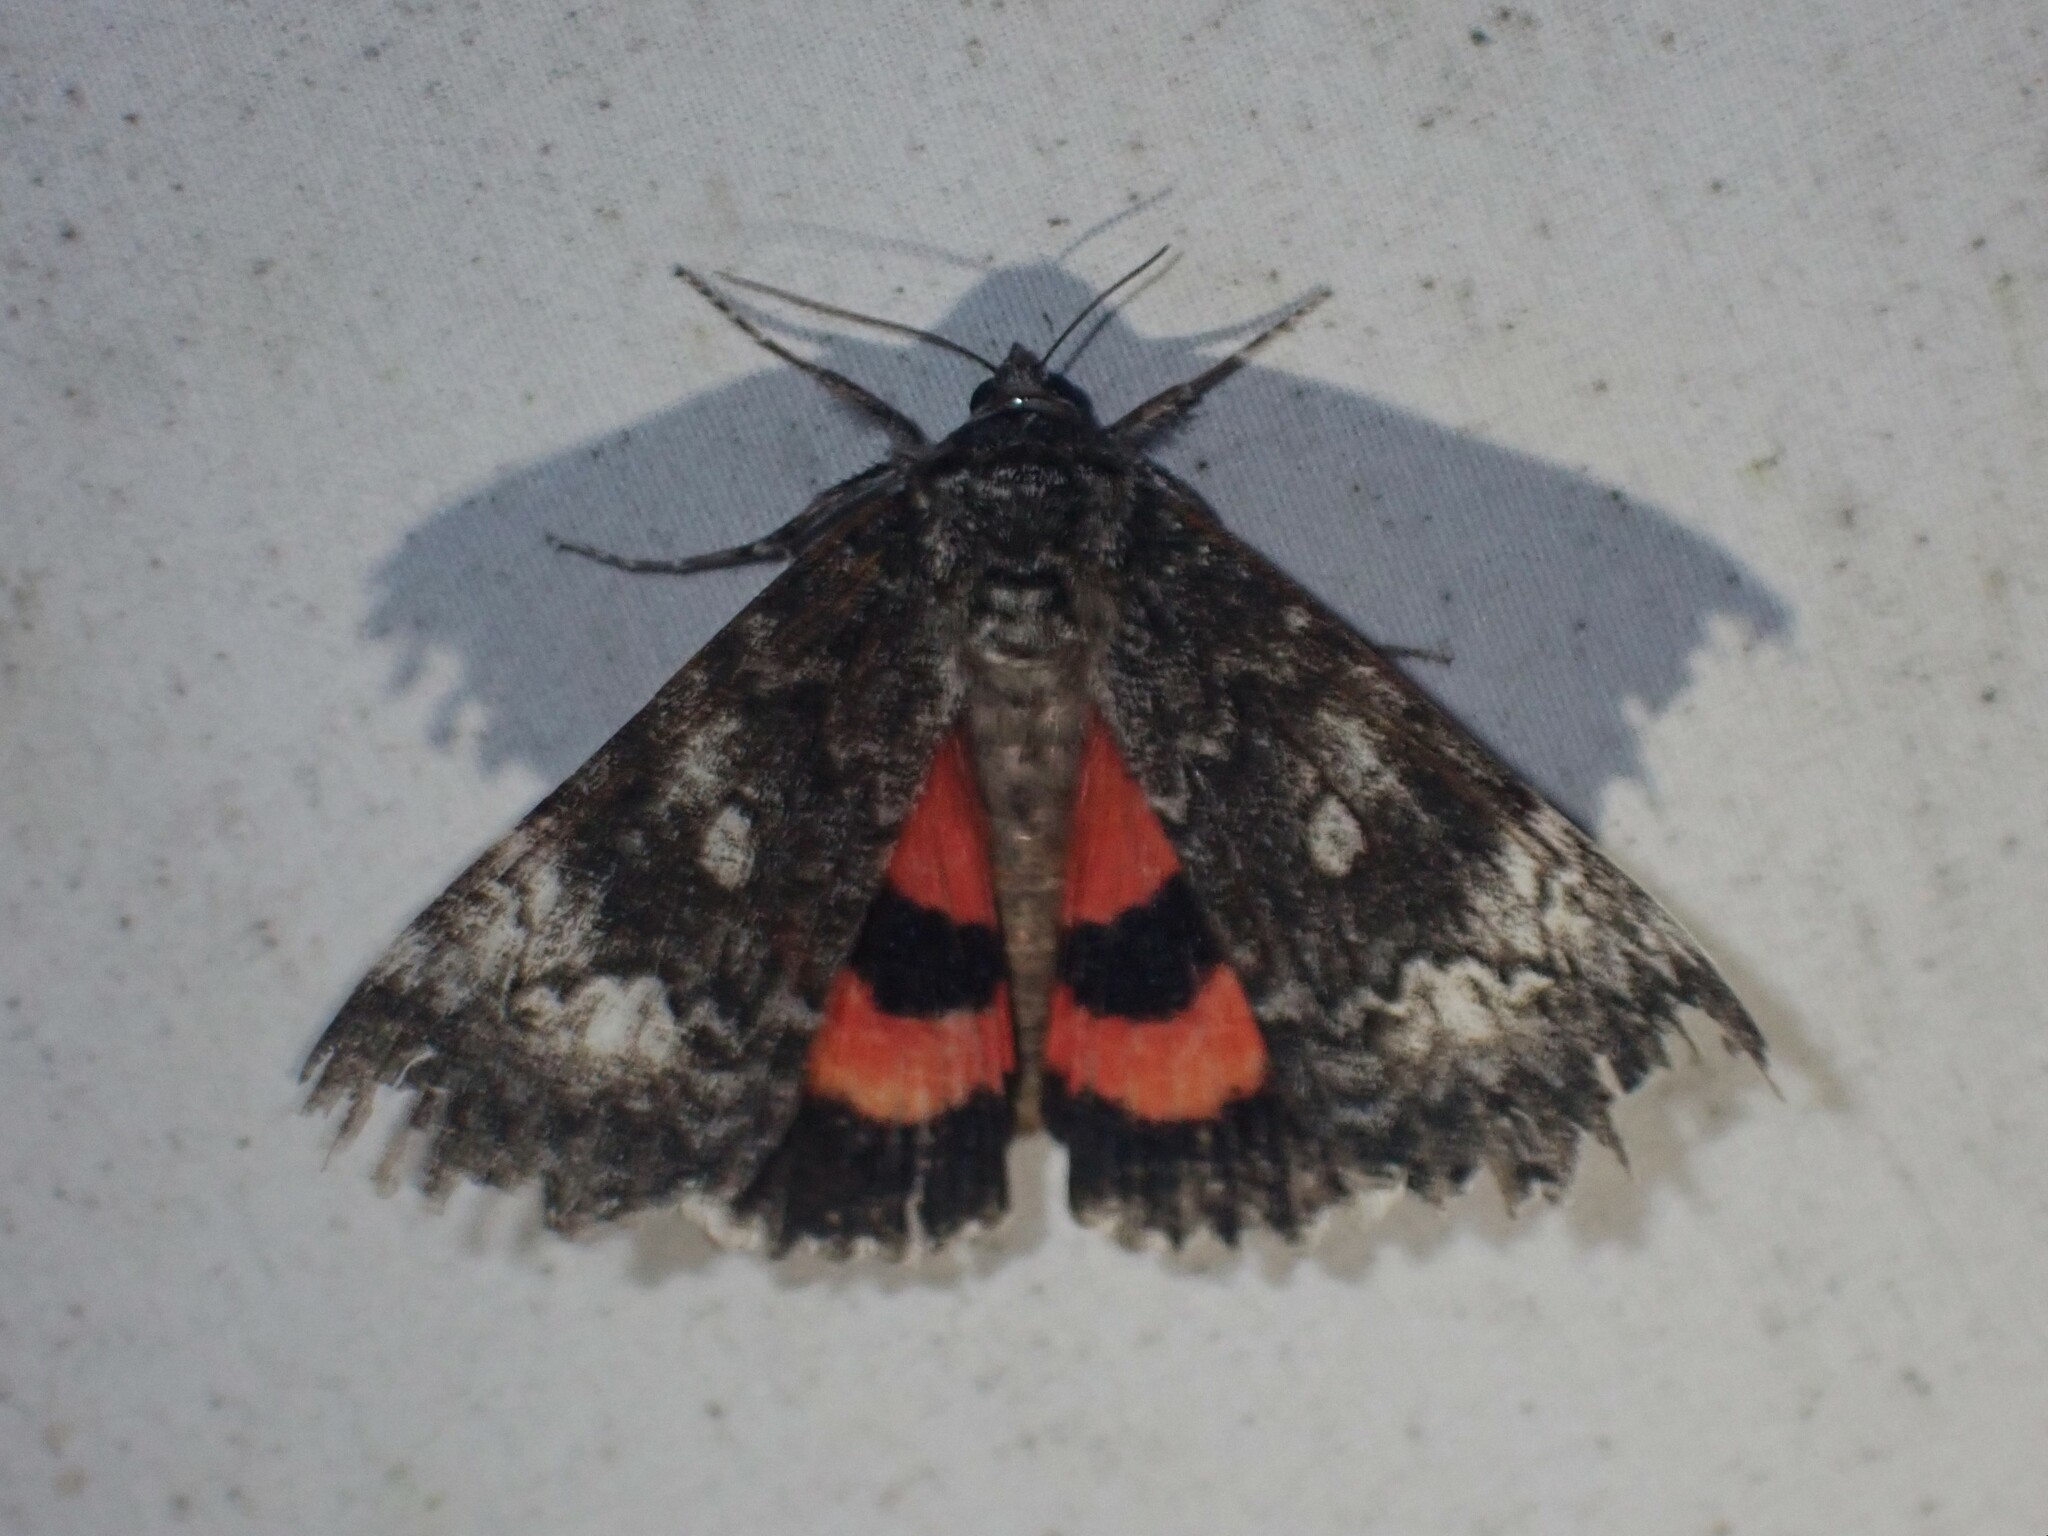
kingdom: Animalia
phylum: Arthropoda
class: Insecta
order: Lepidoptera
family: Erebidae
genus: Catocala
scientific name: Catocala briseis
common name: Briseis underwing
